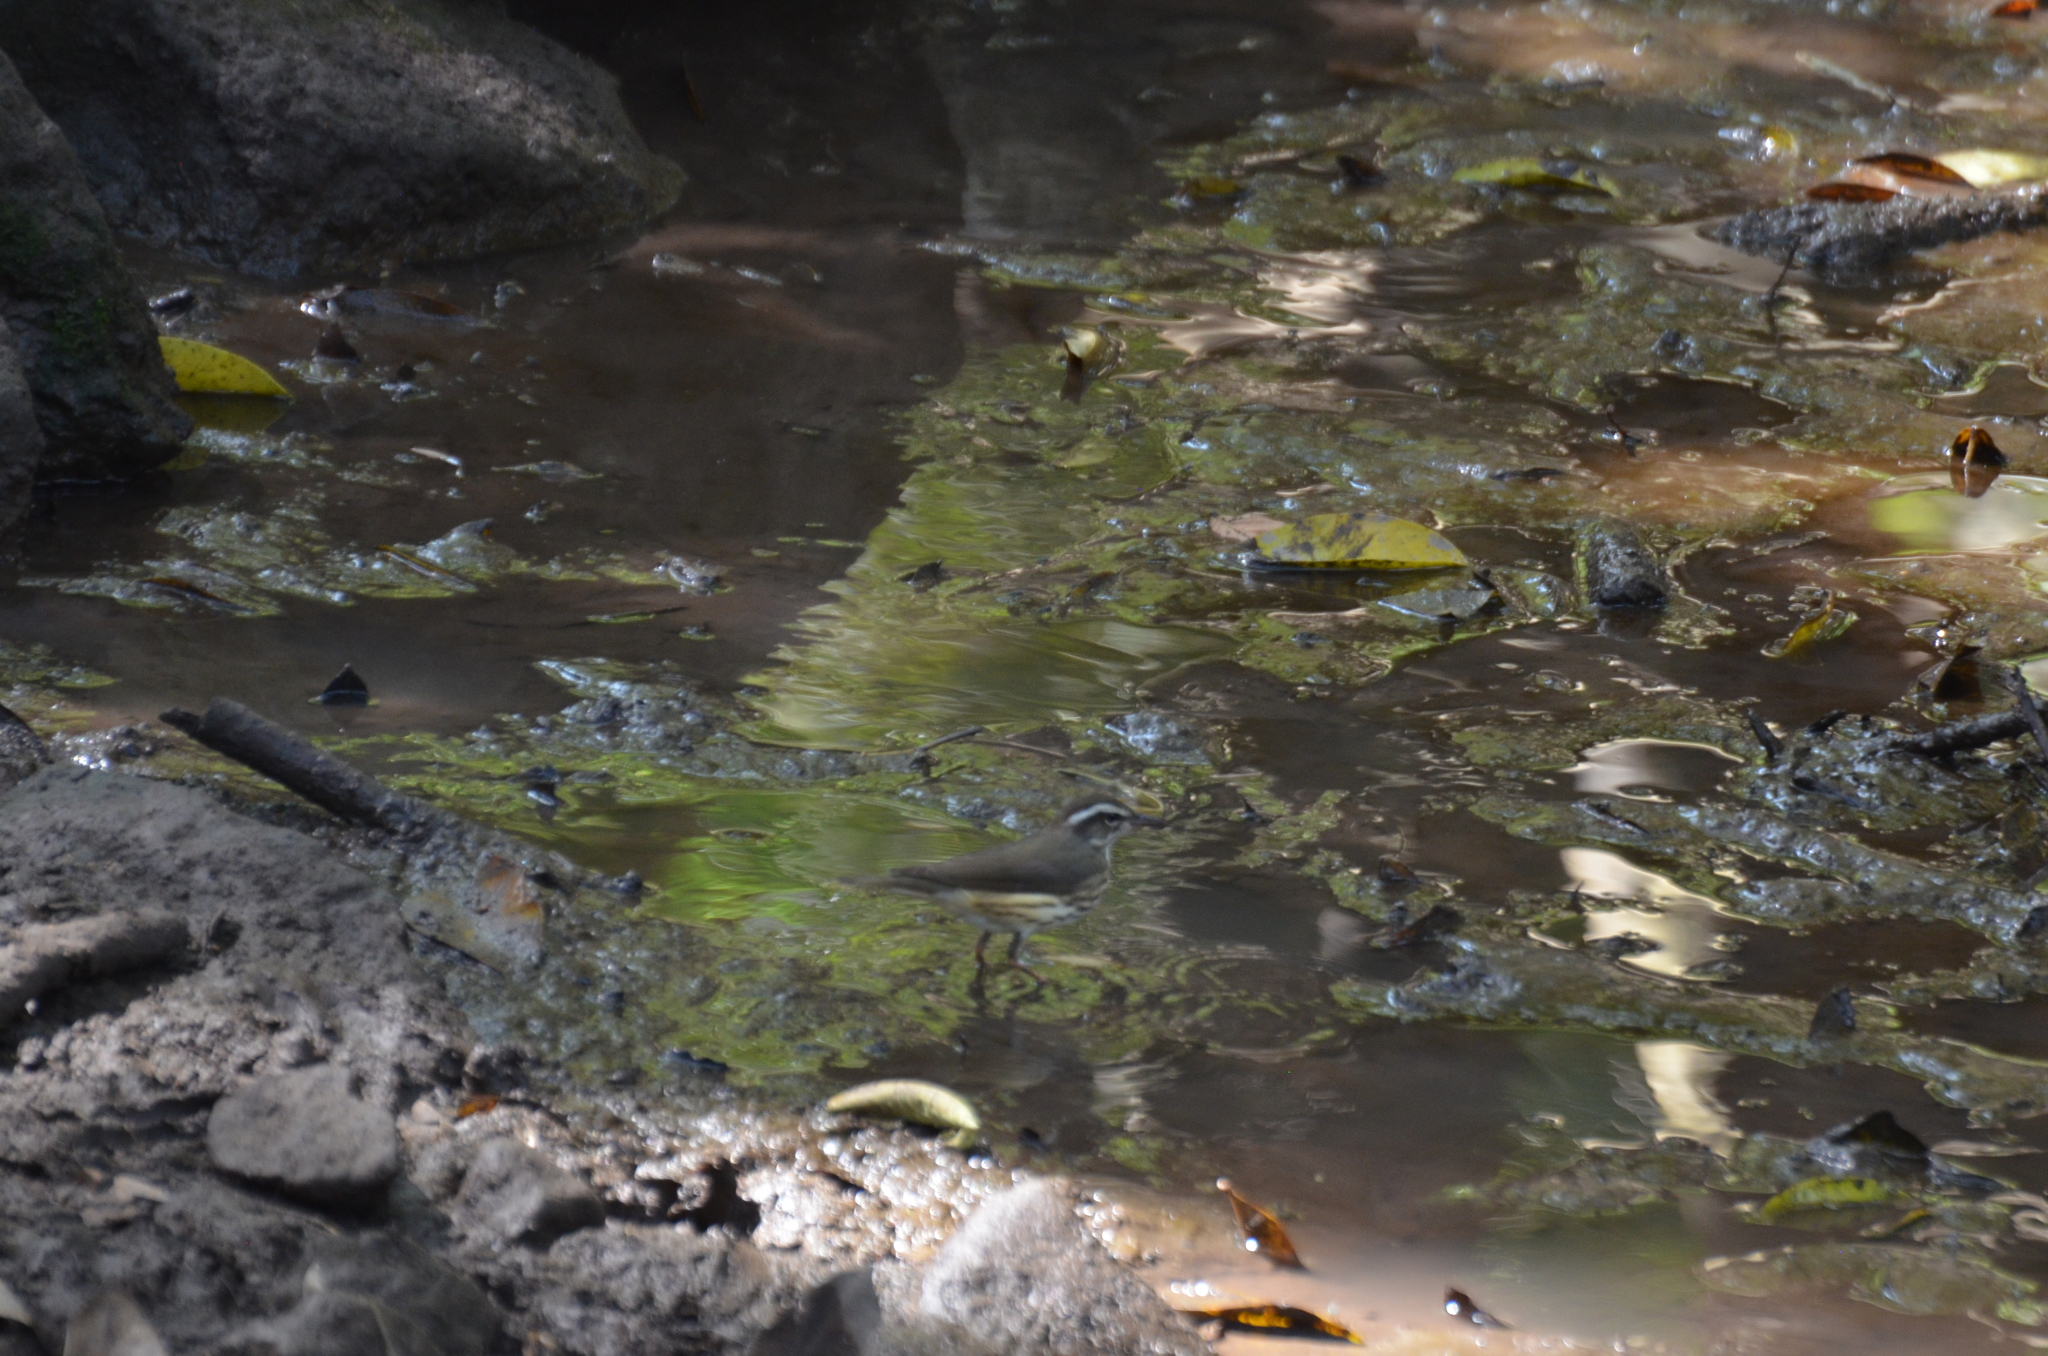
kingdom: Animalia
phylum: Chordata
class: Aves
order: Passeriformes
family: Parulidae
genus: Parkesia
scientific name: Parkesia motacilla
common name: Louisiana waterthrush
